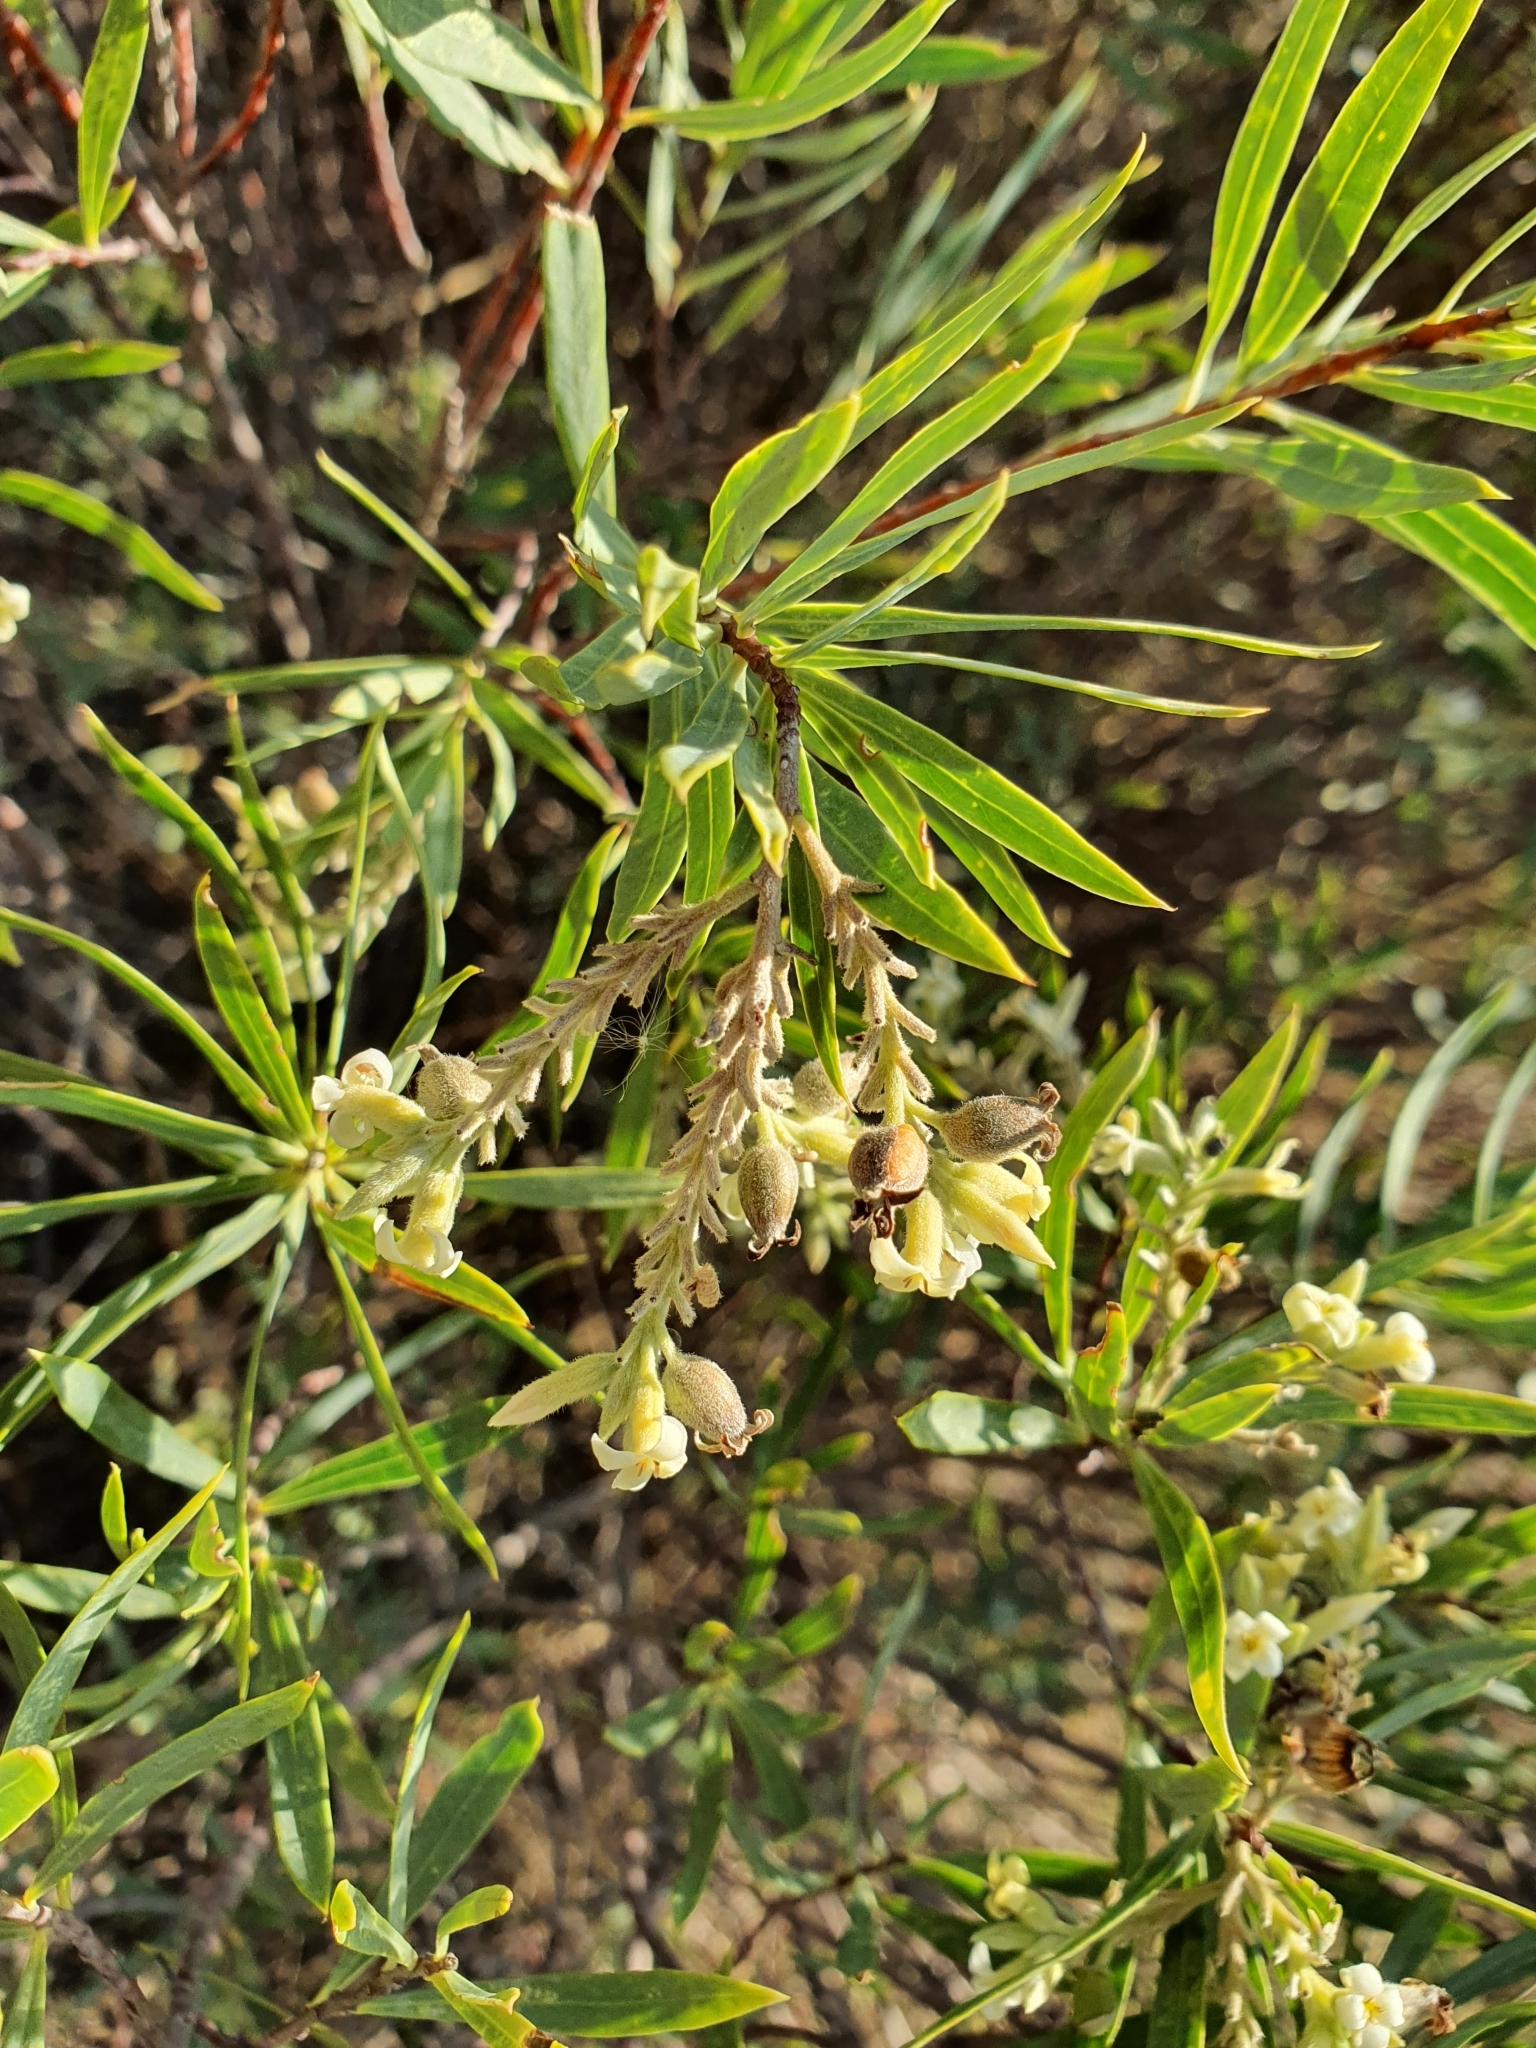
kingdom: Plantae
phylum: Tracheophyta
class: Magnoliopsida
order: Malvales
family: Thymelaeaceae
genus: Daphne
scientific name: Daphne gnidium
